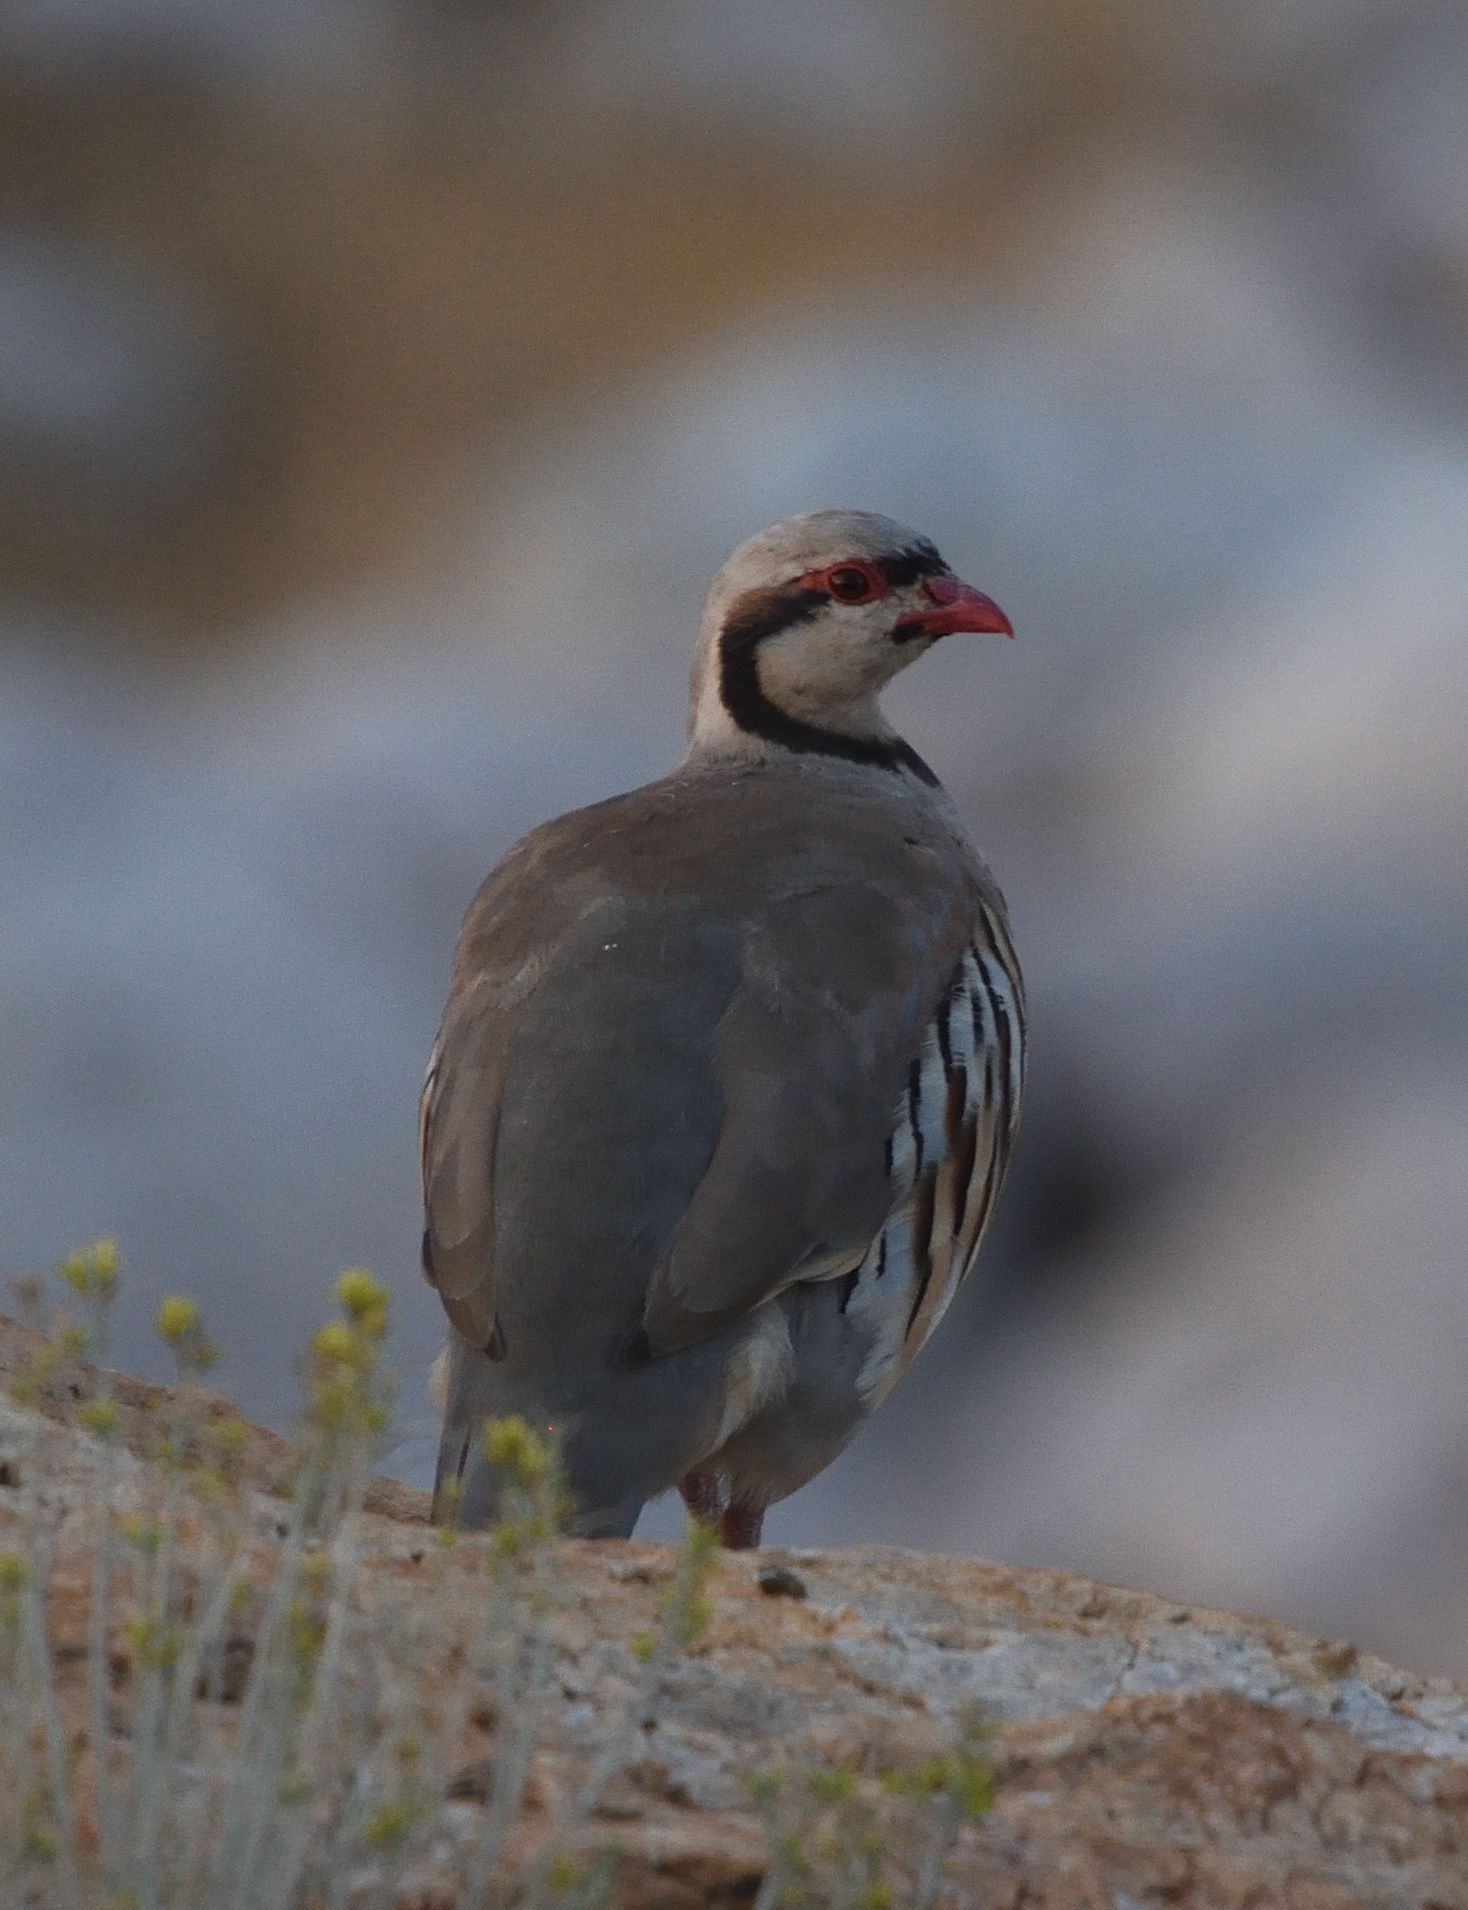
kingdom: Animalia
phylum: Chordata
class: Aves
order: Galliformes
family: Phasianidae
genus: Alectoris
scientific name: Alectoris chukar
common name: Chukar
